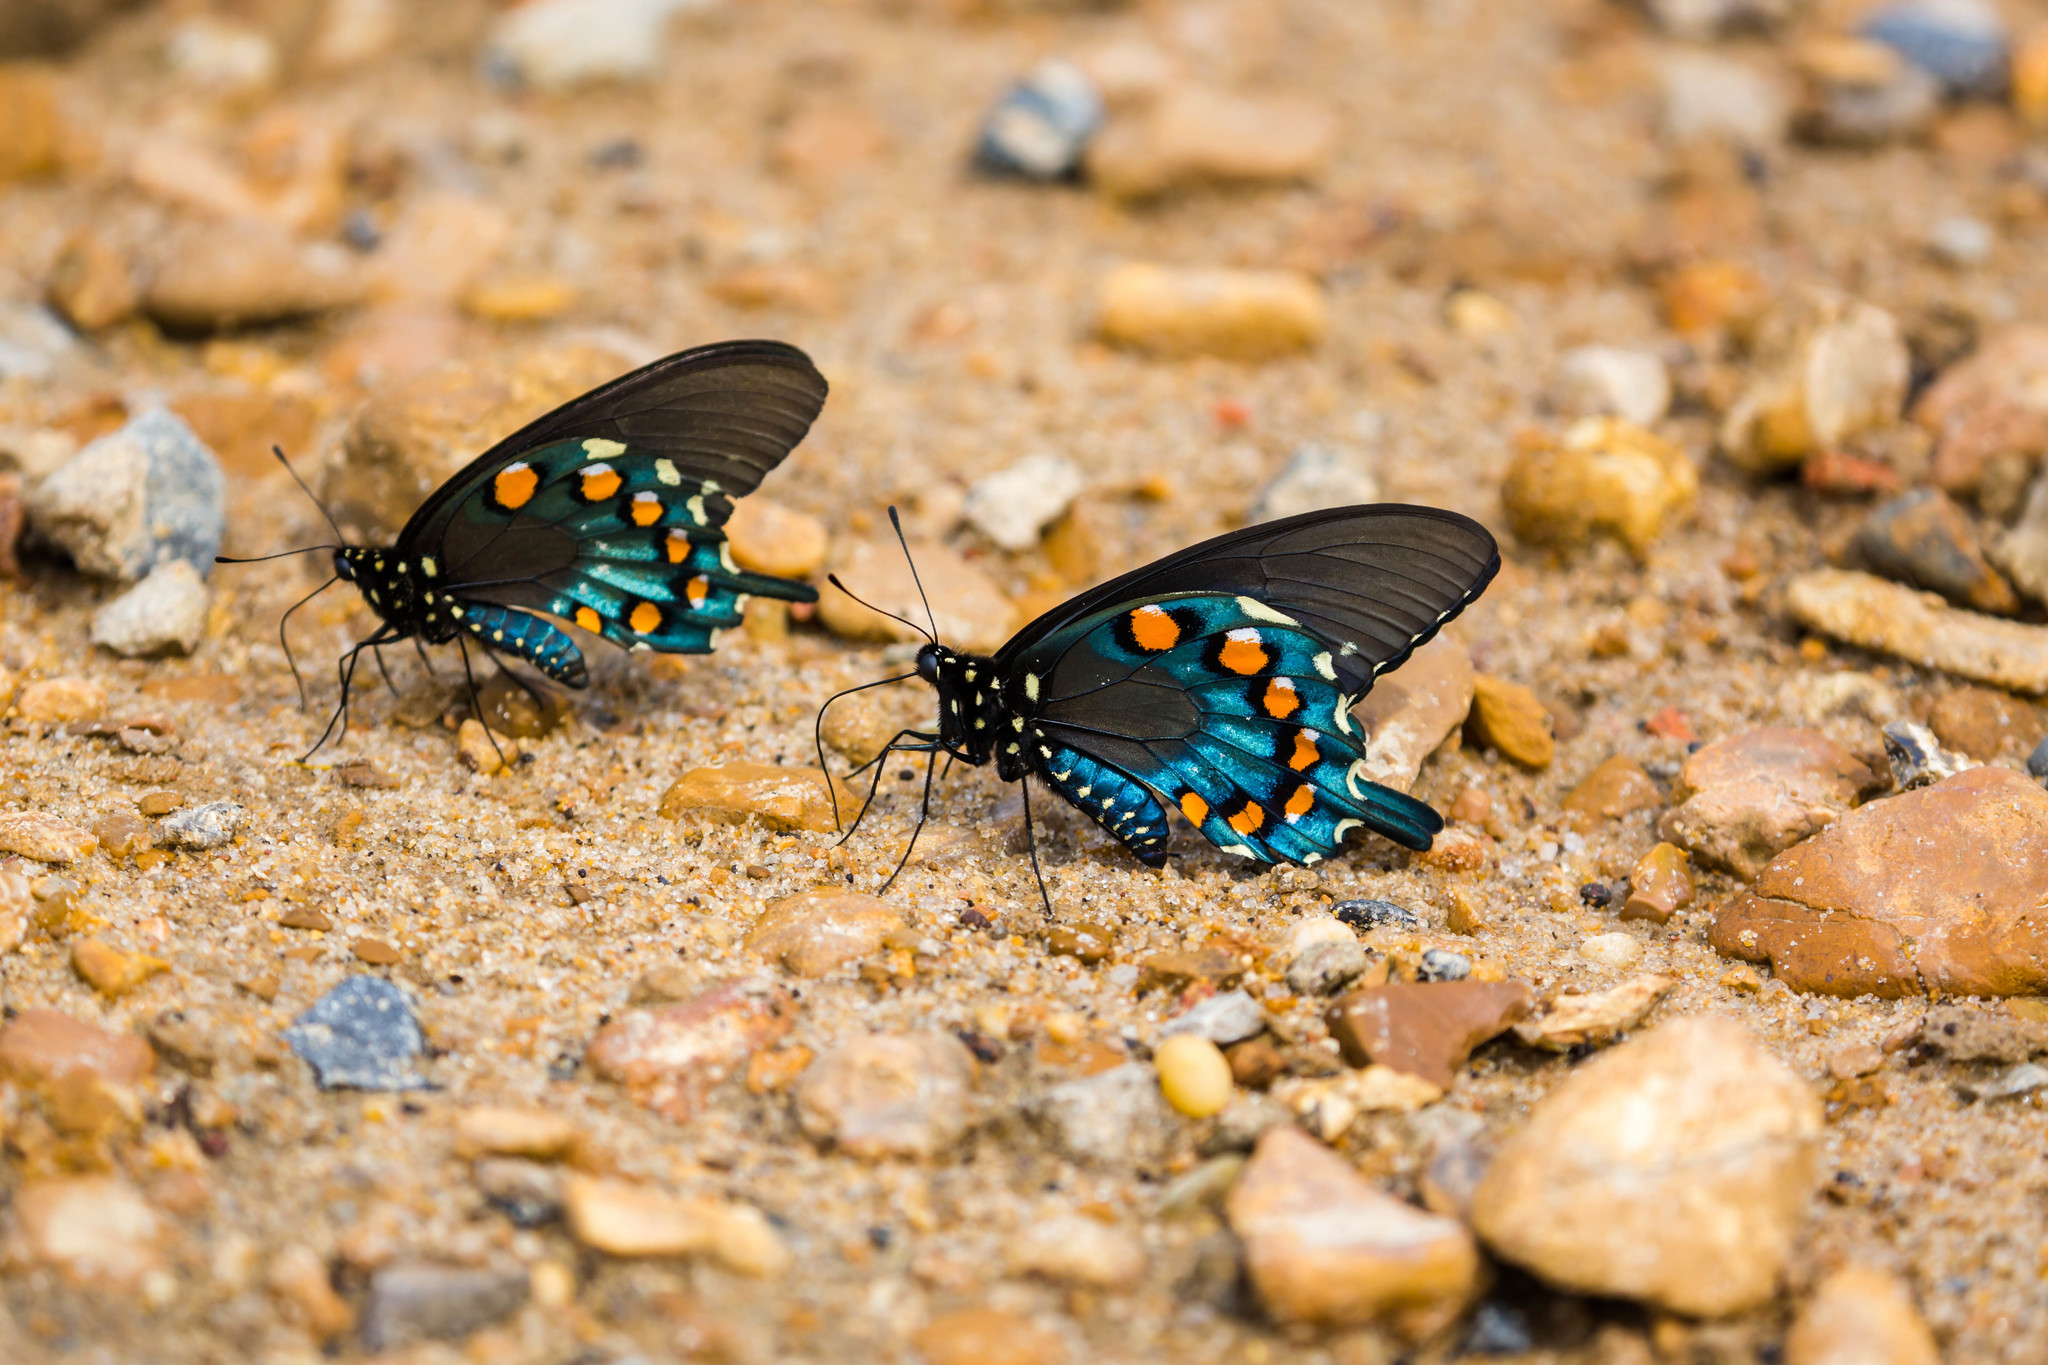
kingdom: Animalia
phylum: Arthropoda
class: Insecta
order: Lepidoptera
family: Papilionidae
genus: Battus
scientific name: Battus philenor
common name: Pipevine swallowtail
